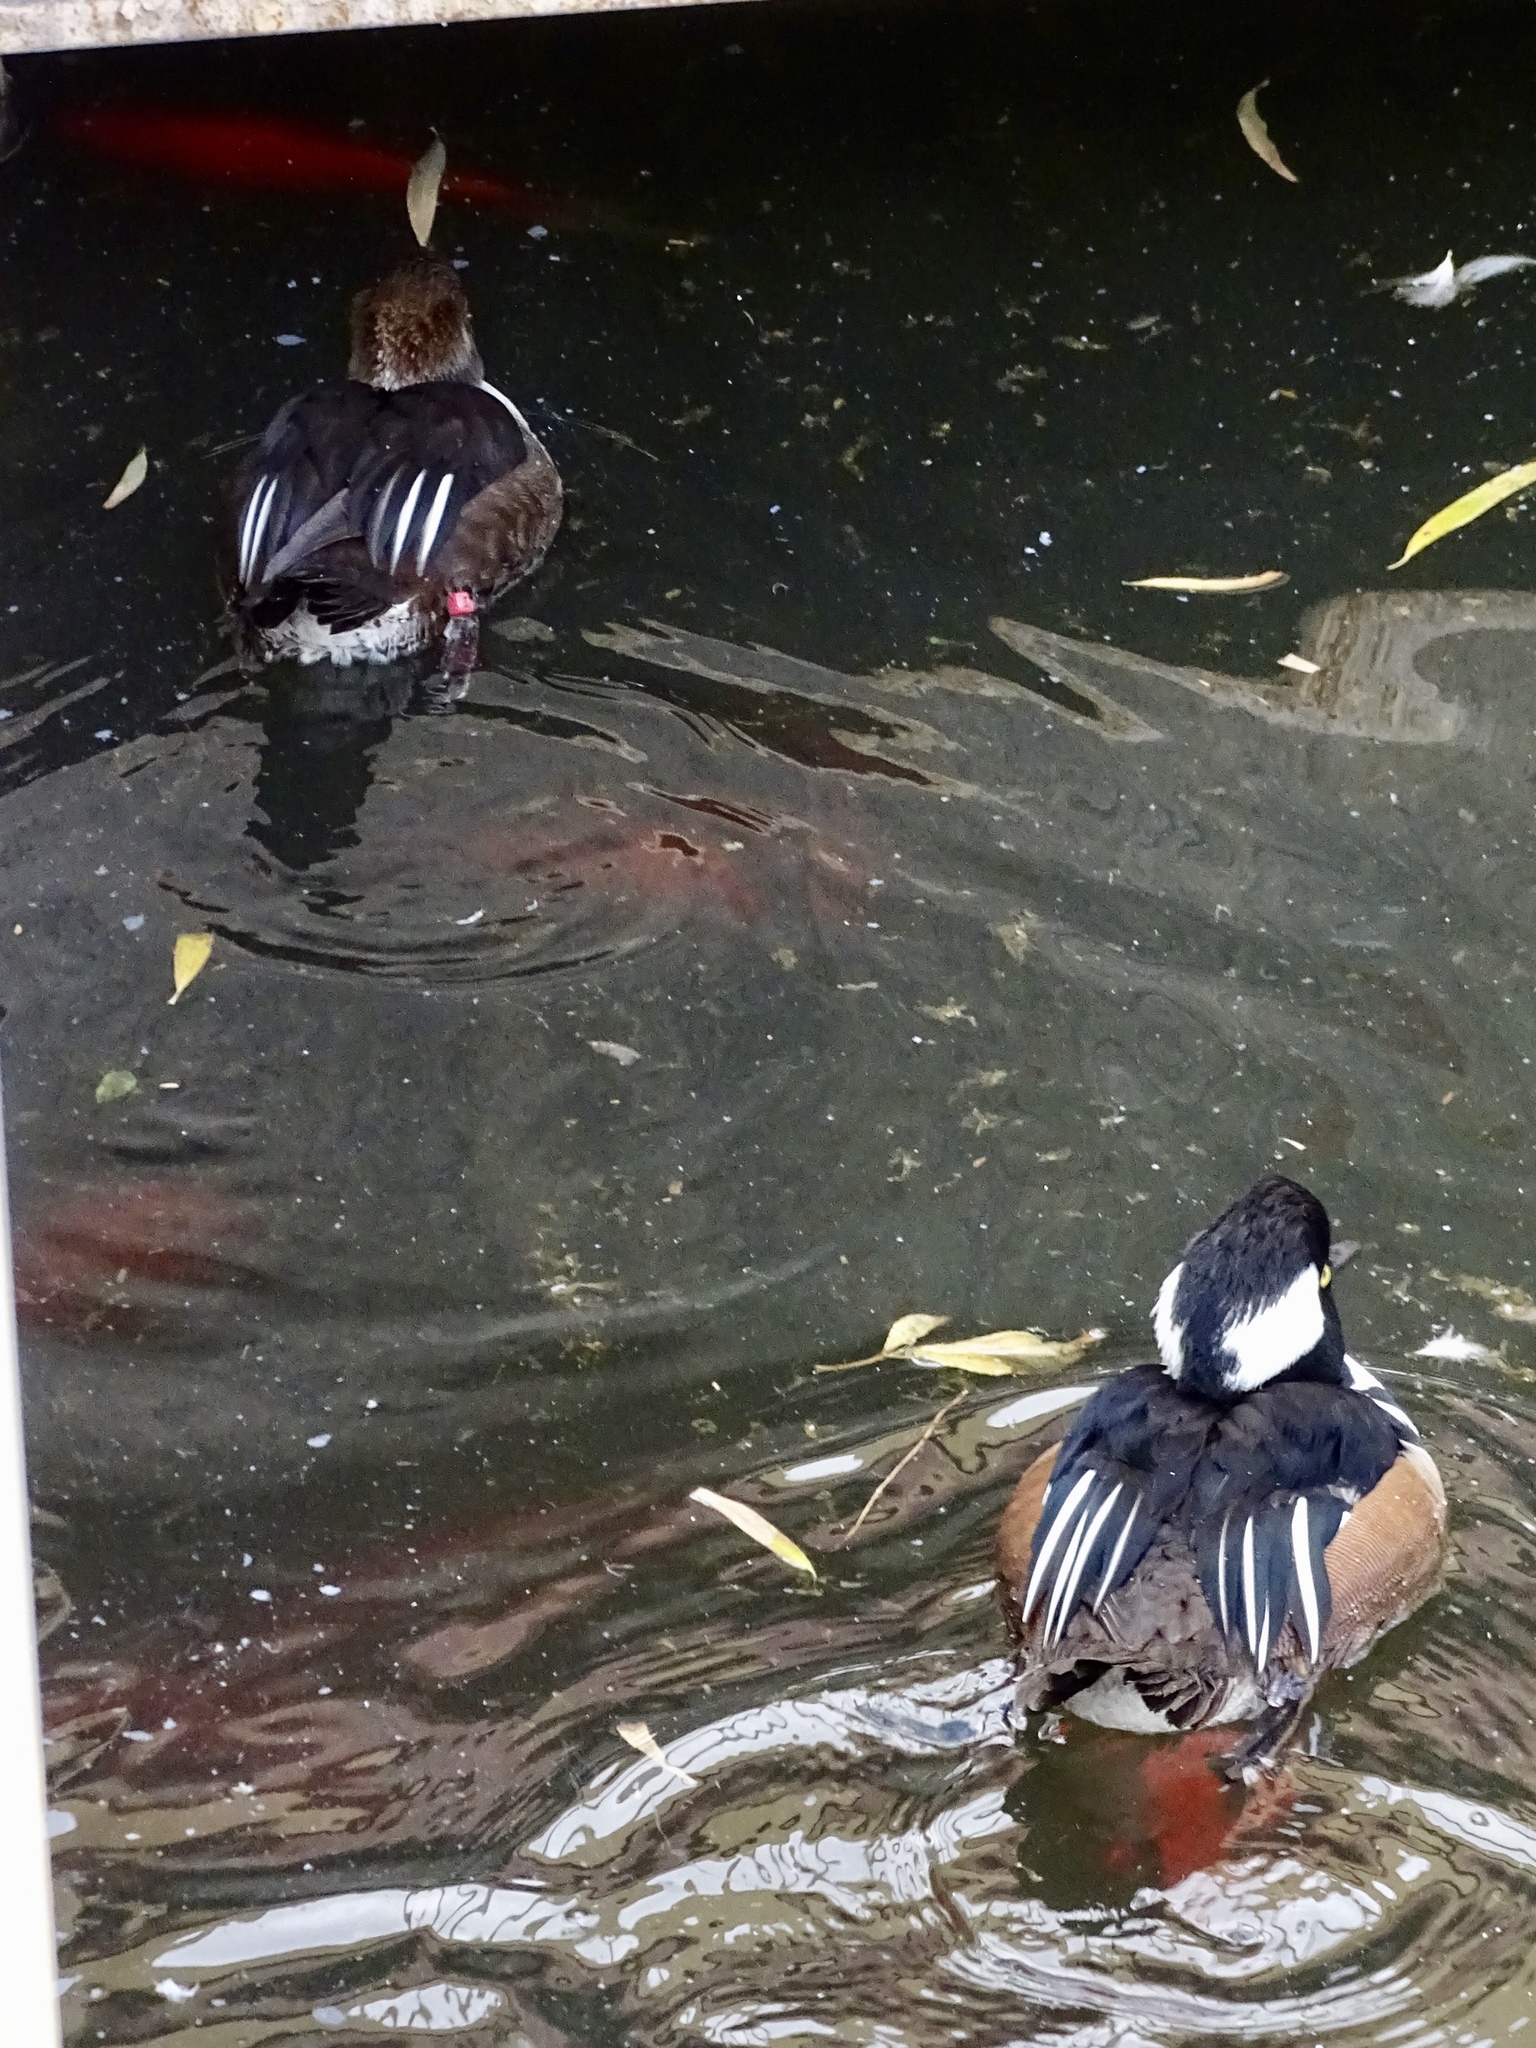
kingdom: Animalia
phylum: Chordata
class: Aves
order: Anseriformes
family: Anatidae
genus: Lophodytes
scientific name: Lophodytes cucullatus
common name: Hooded merganser
